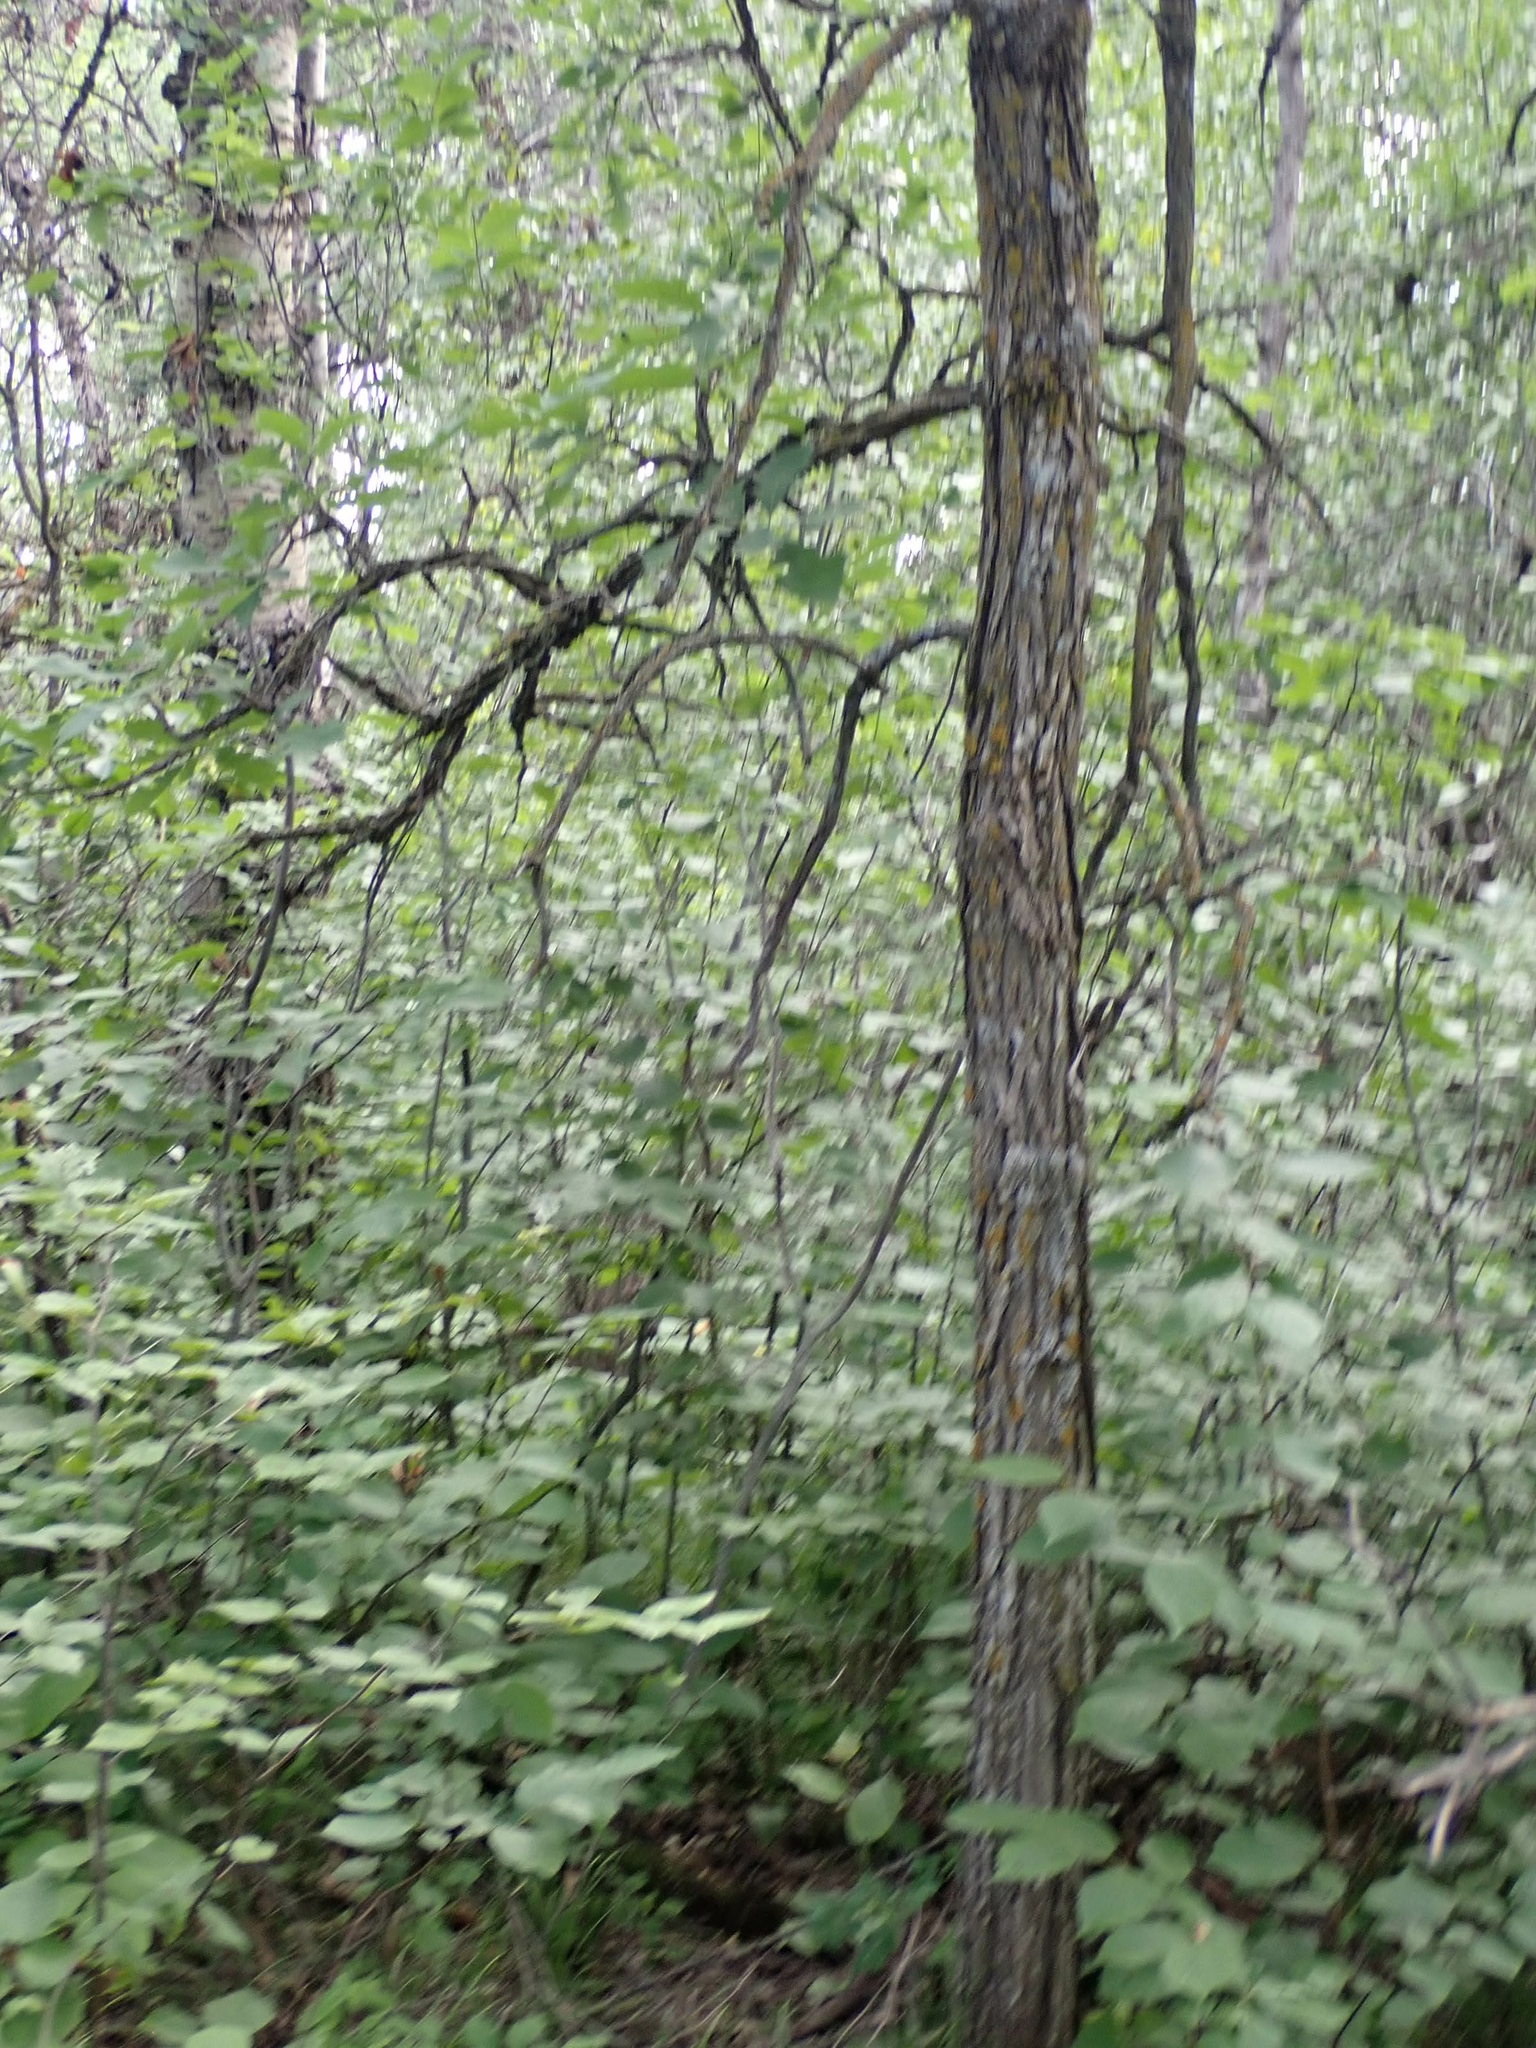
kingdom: Plantae
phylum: Tracheophyta
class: Magnoliopsida
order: Fagales
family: Fagaceae
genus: Quercus
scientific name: Quercus macrocarpa
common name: Bur oak
